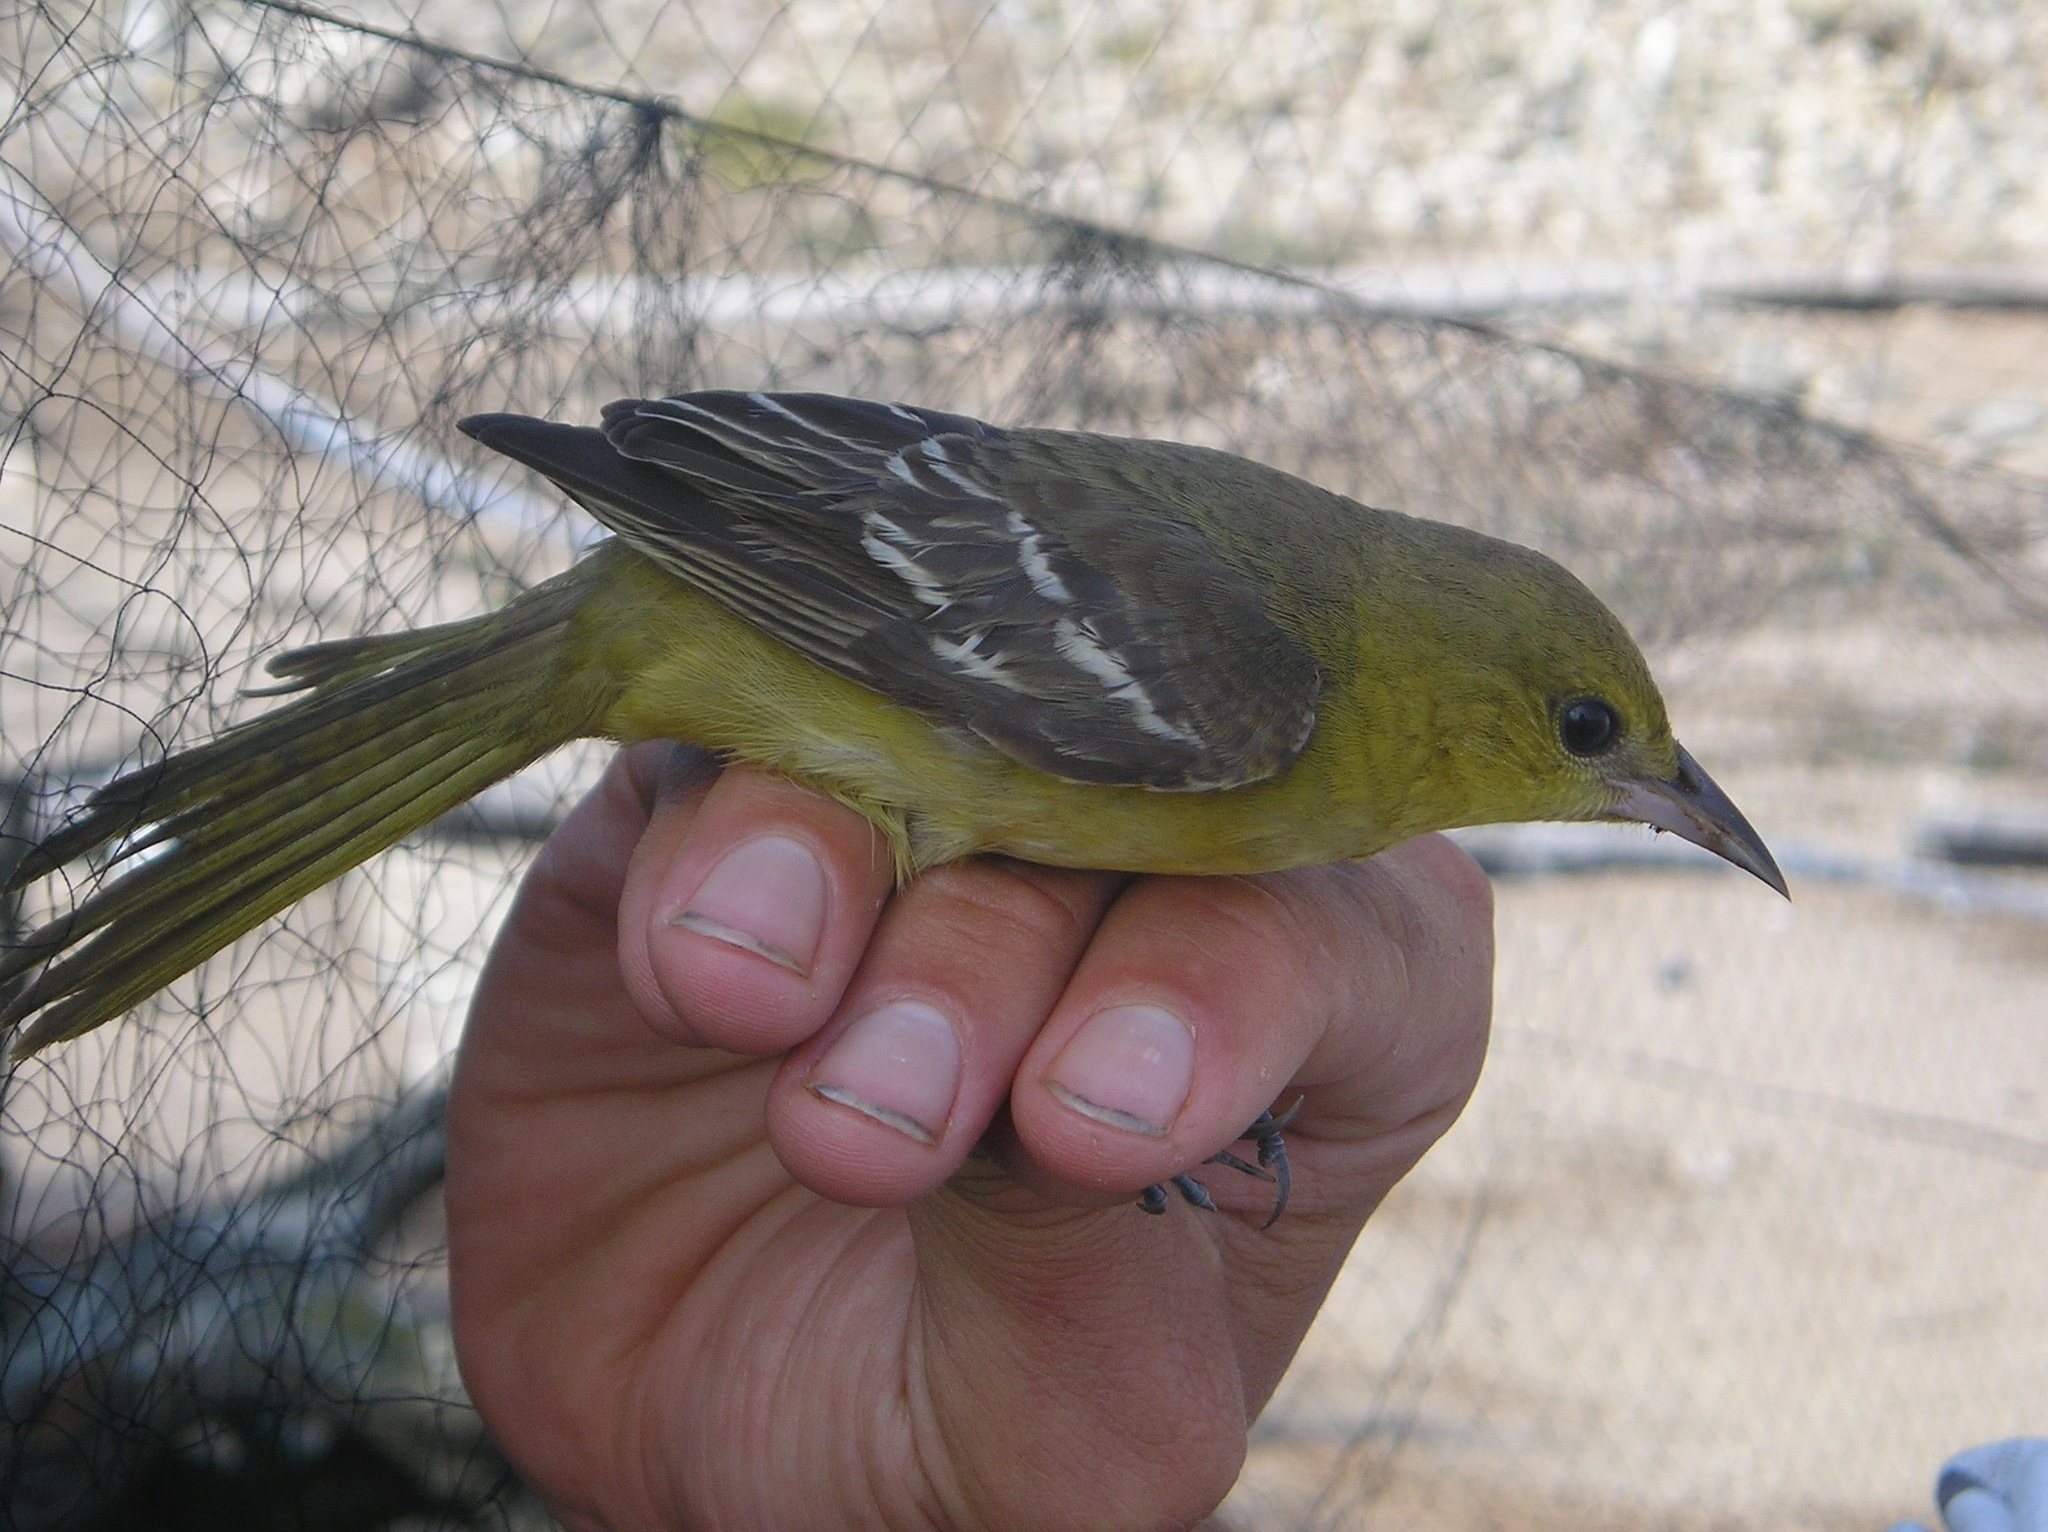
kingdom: Animalia
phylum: Chordata
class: Aves
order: Passeriformes
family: Icteridae
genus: Icterus
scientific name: Icterus spurius
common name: Orchard oriole
